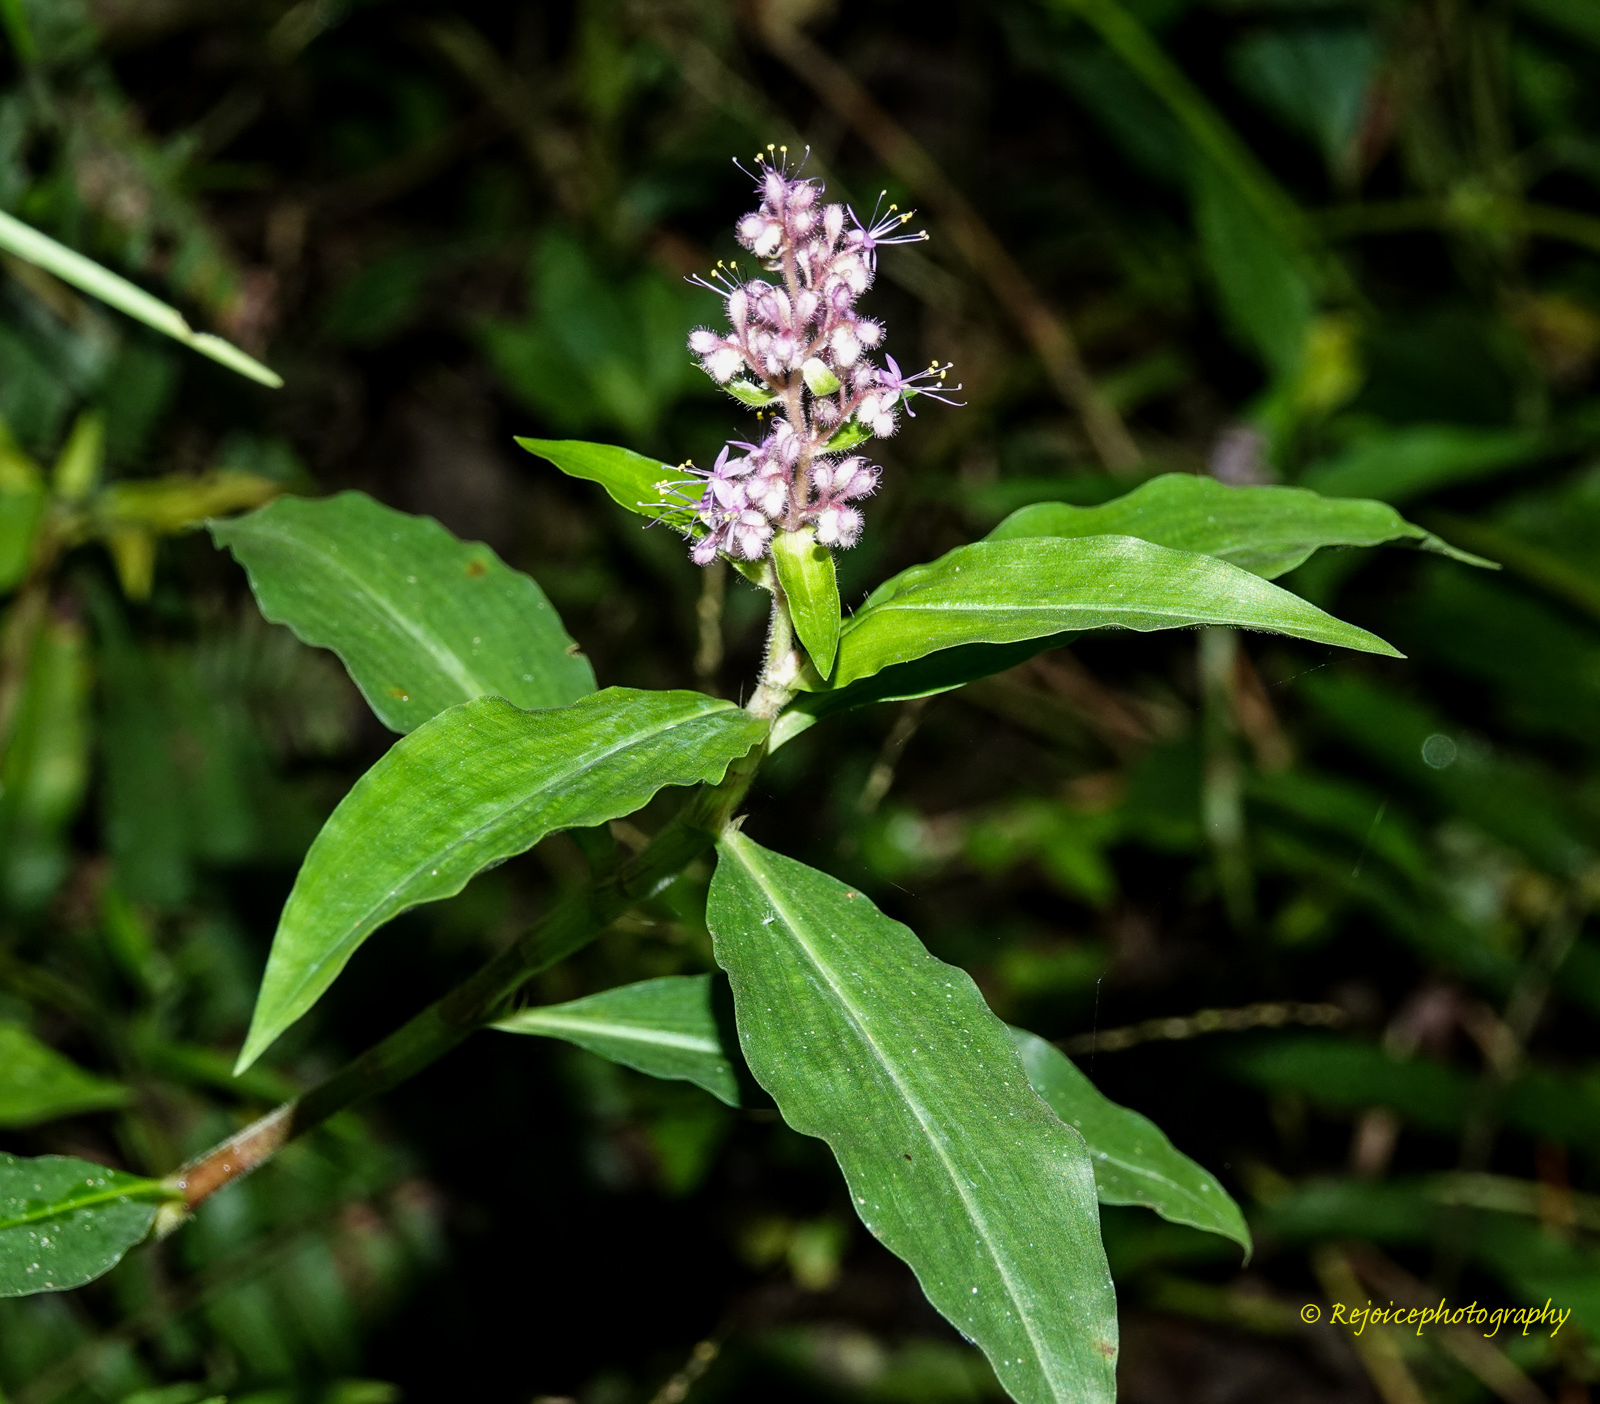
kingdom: Plantae
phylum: Tracheophyta
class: Liliopsida
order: Commelinales
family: Commelinaceae
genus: Floscopa
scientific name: Floscopa scandens
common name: Climbing flower cup
